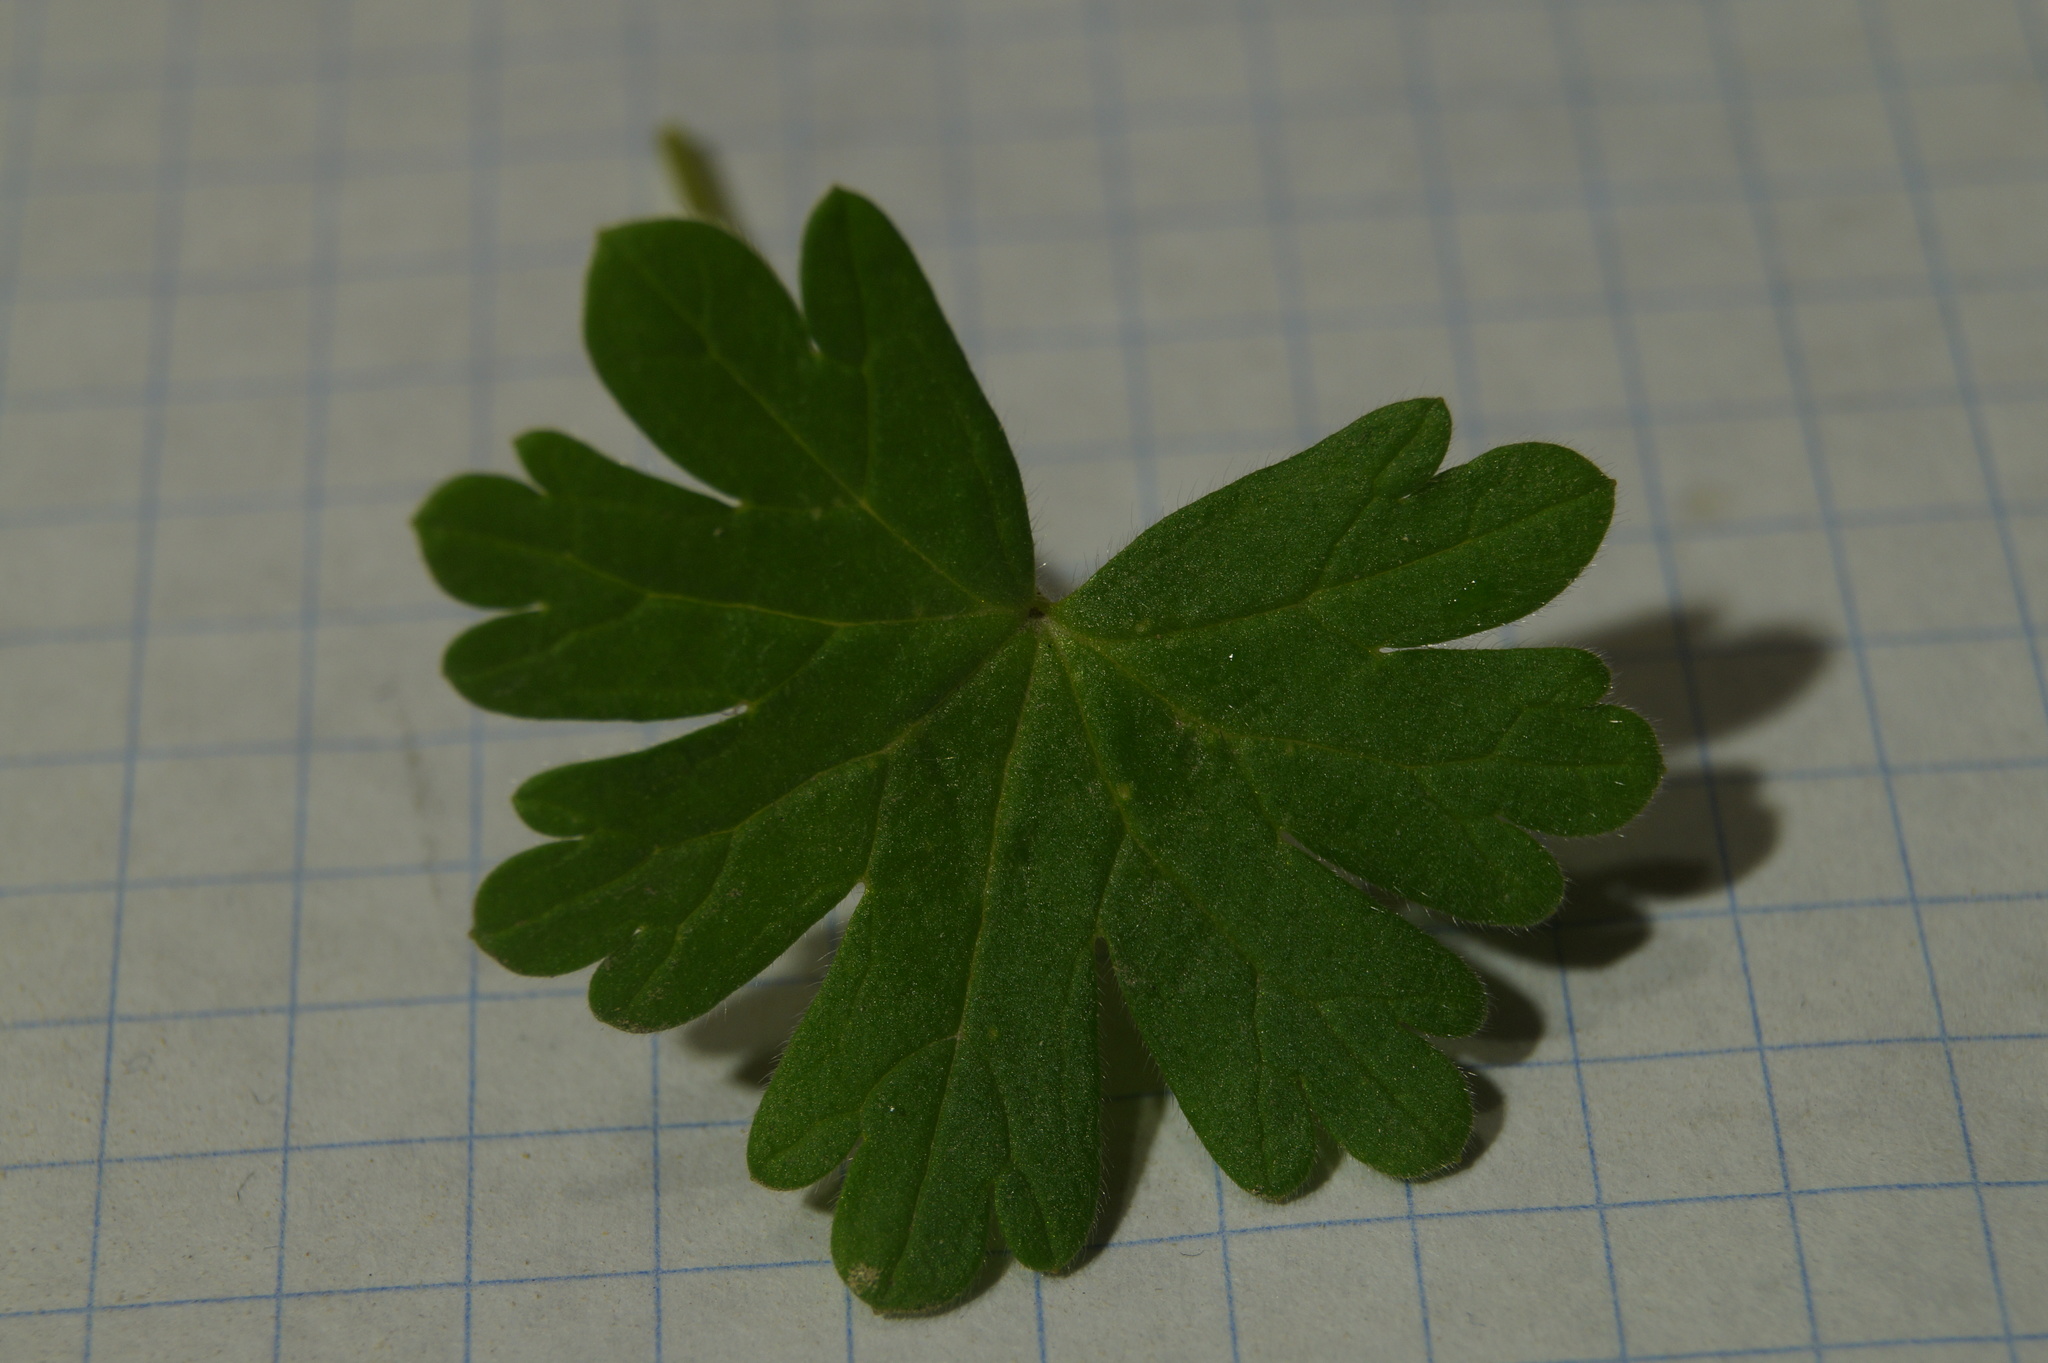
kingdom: Plantae
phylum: Tracheophyta
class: Magnoliopsida
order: Geraniales
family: Geraniaceae
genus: Geranium
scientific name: Geranium molle
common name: Dove's-foot crane's-bill
